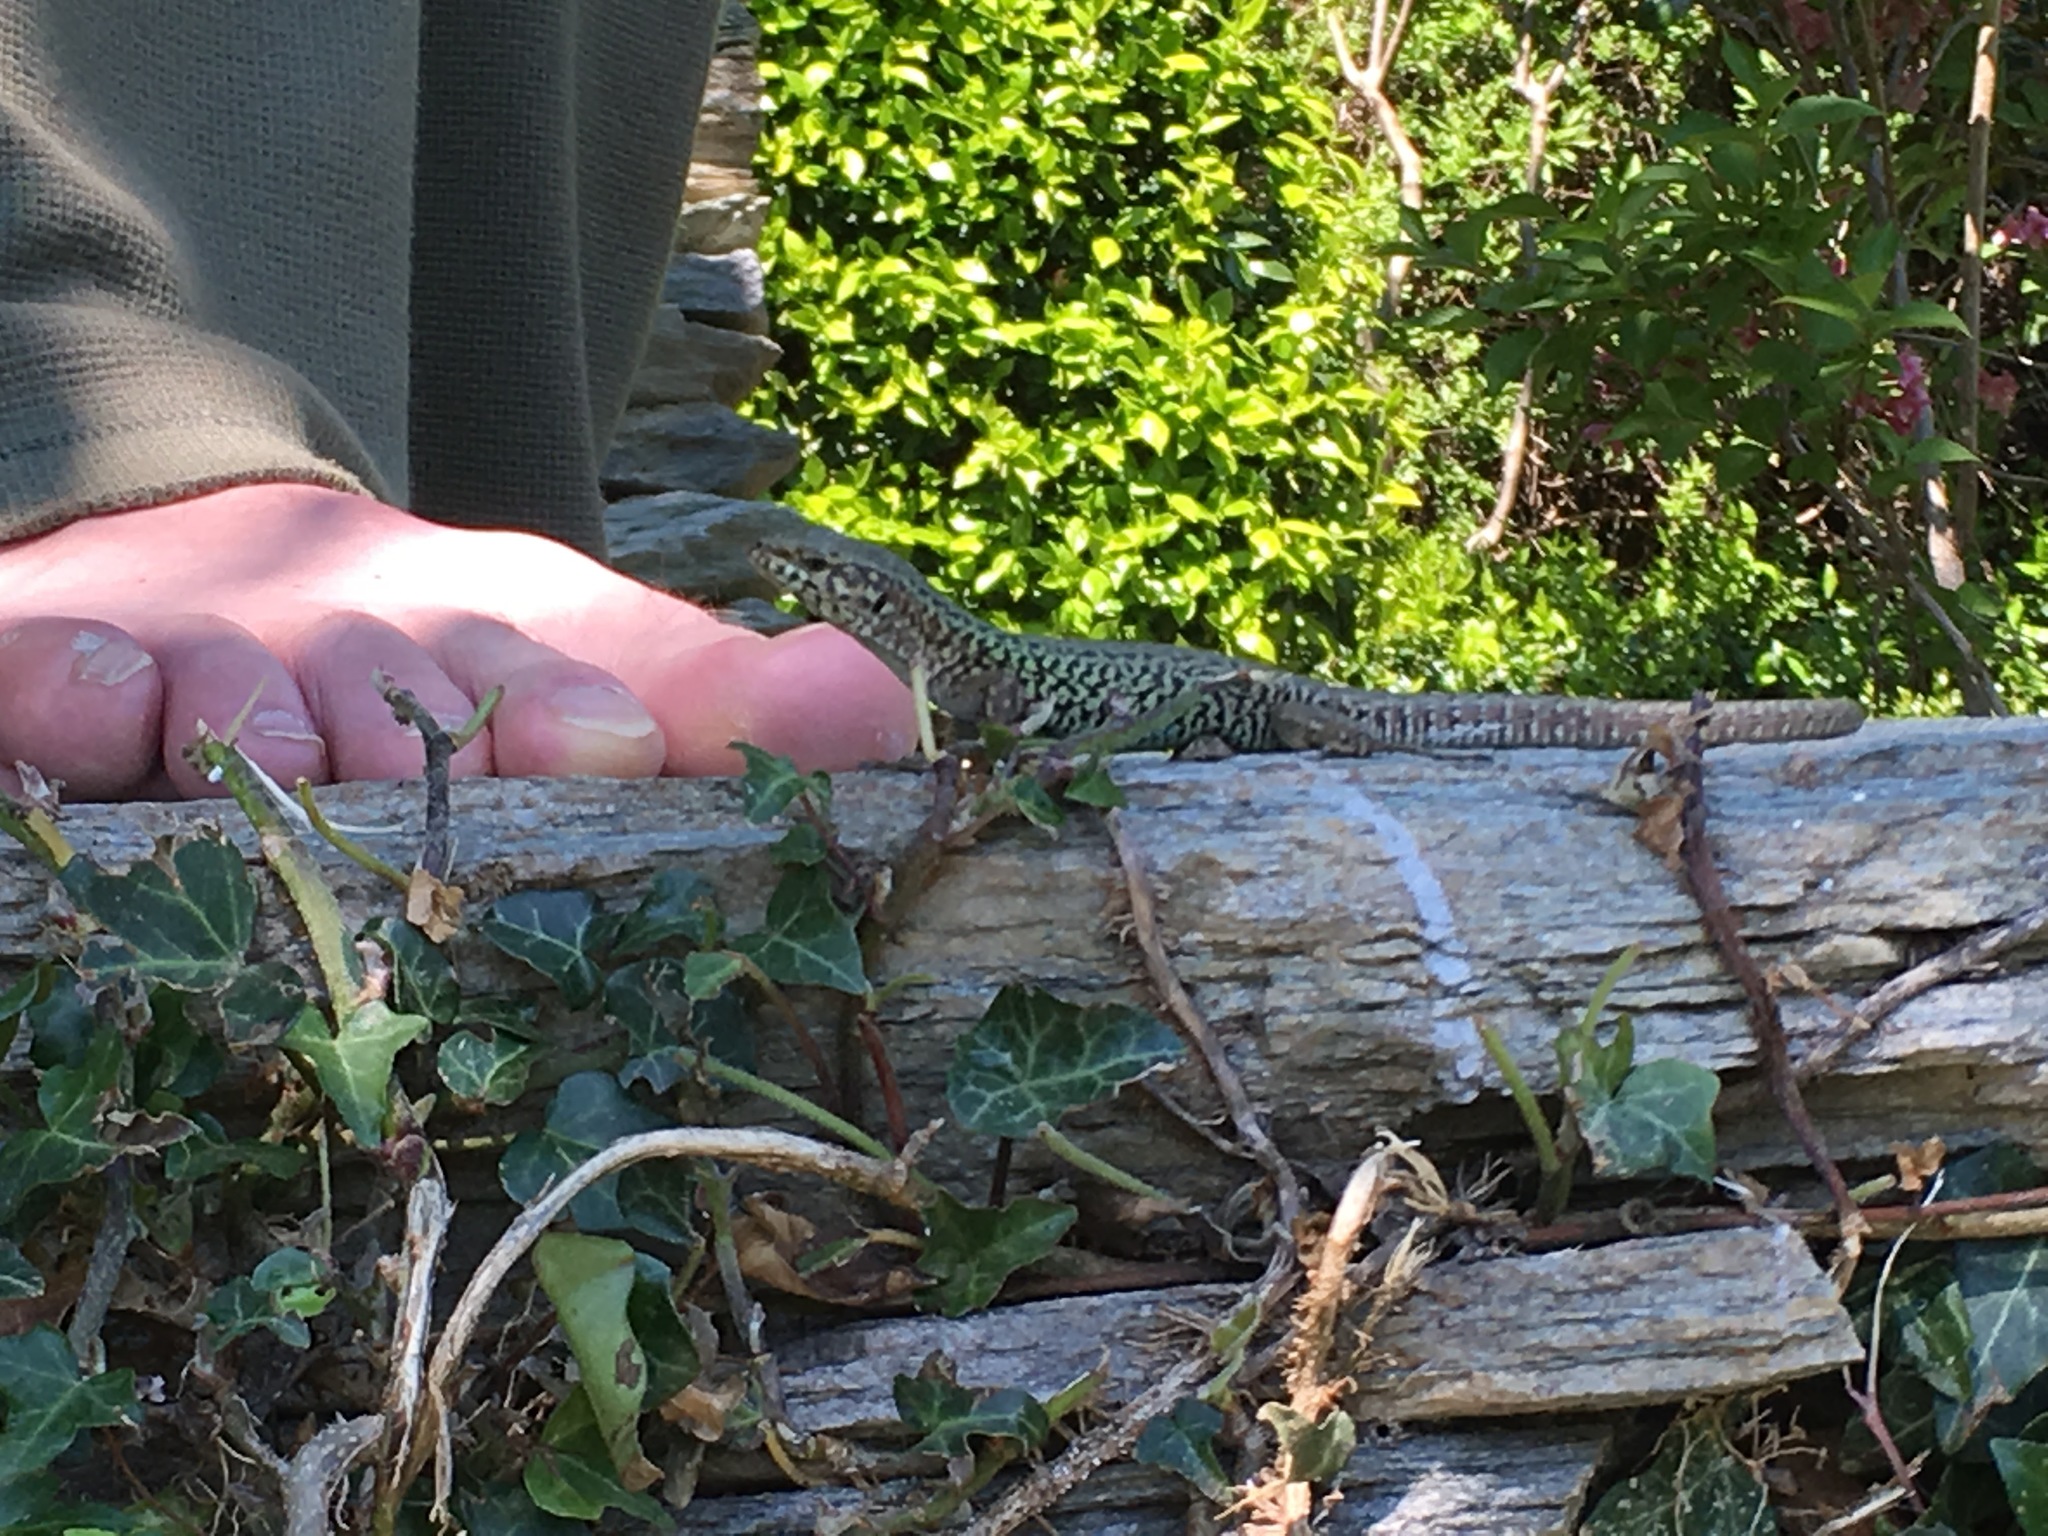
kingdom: Animalia
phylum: Chordata
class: Squamata
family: Lacertidae
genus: Podarcis
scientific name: Podarcis erhardii
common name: Erhard's wall lizard
